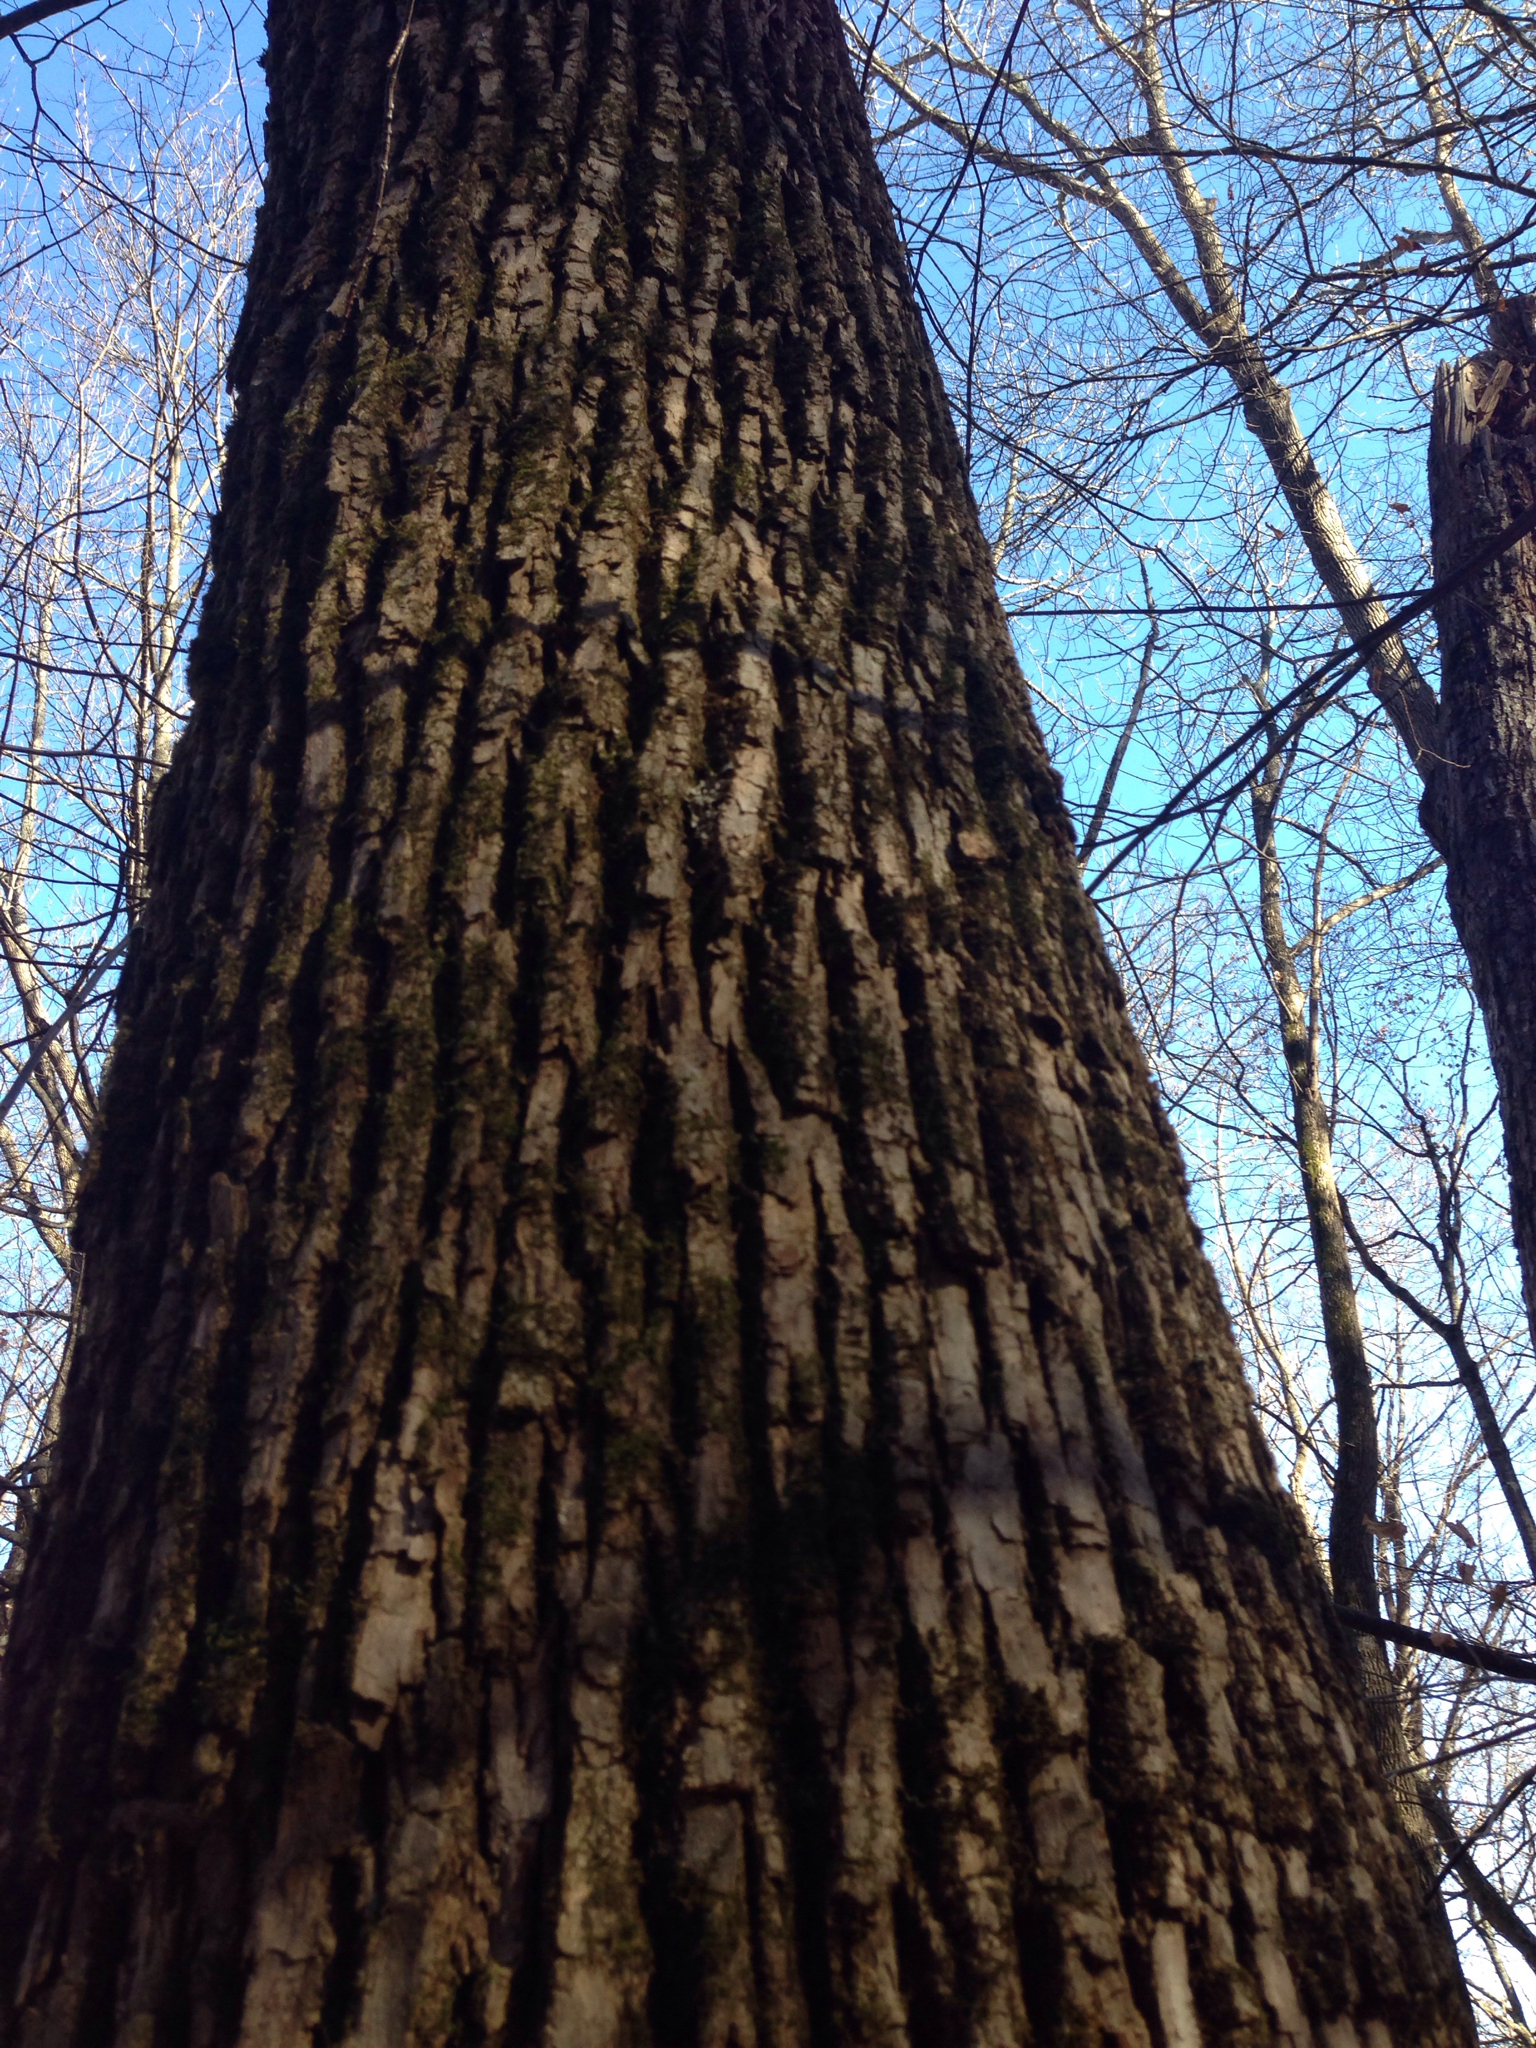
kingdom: Plantae
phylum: Tracheophyta
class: Magnoliopsida
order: Lamiales
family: Oleaceae
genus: Fraxinus
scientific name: Fraxinus americana
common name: White ash
